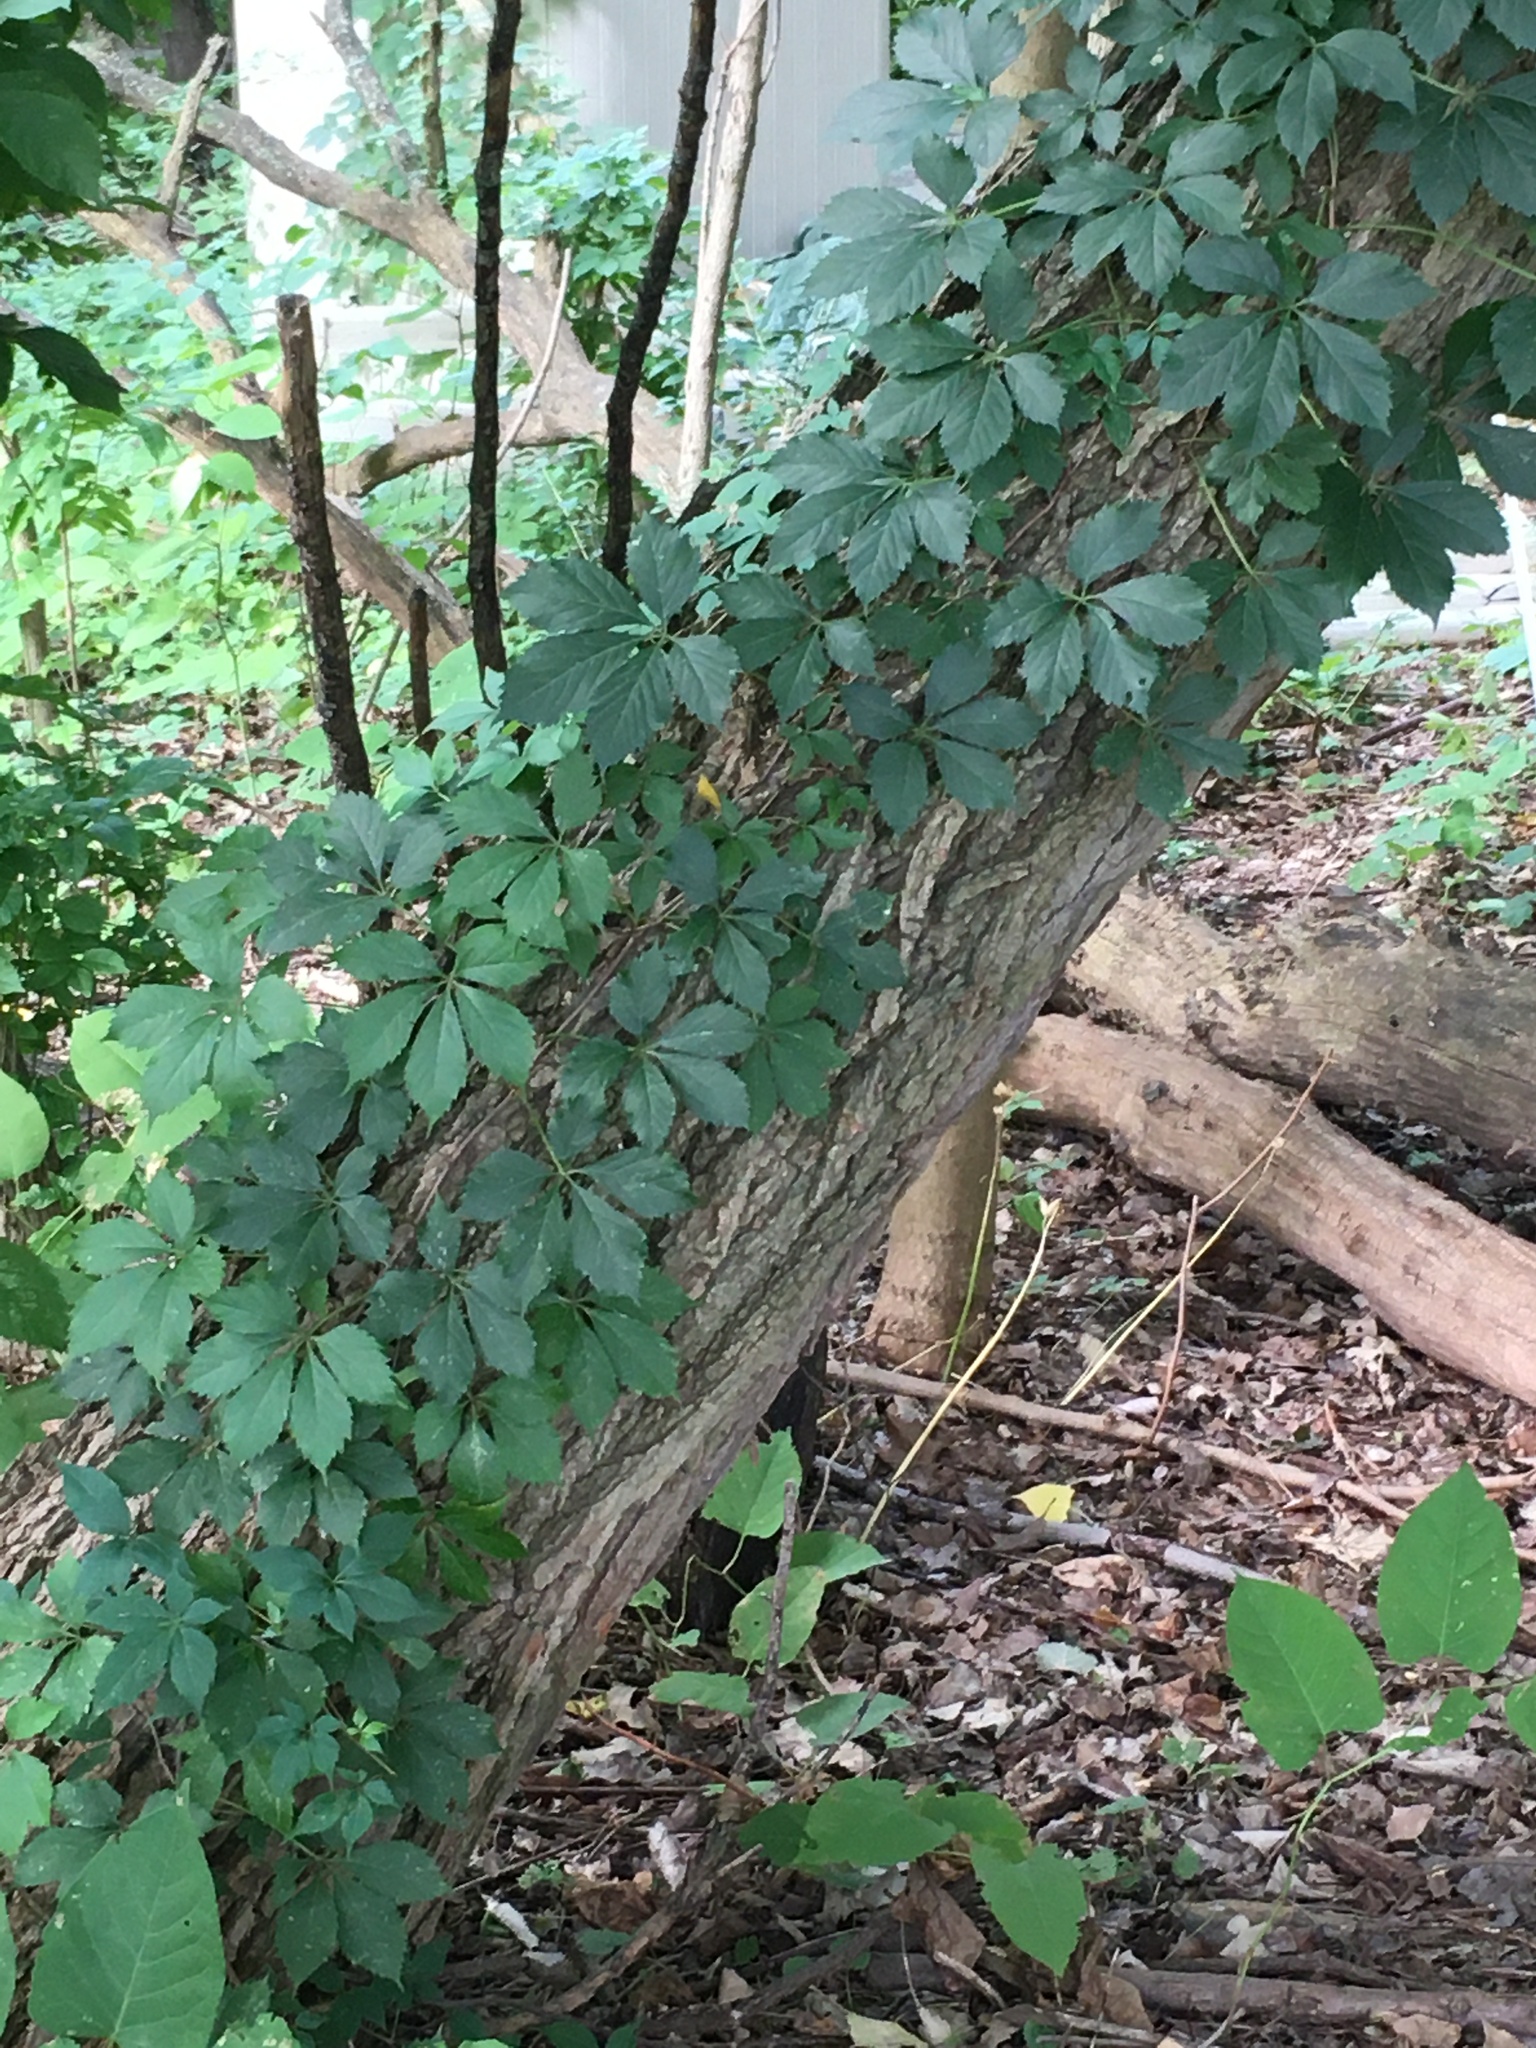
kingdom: Plantae
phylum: Tracheophyta
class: Magnoliopsida
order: Vitales
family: Vitaceae
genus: Parthenocissus
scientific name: Parthenocissus quinquefolia
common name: Virginia-creeper
